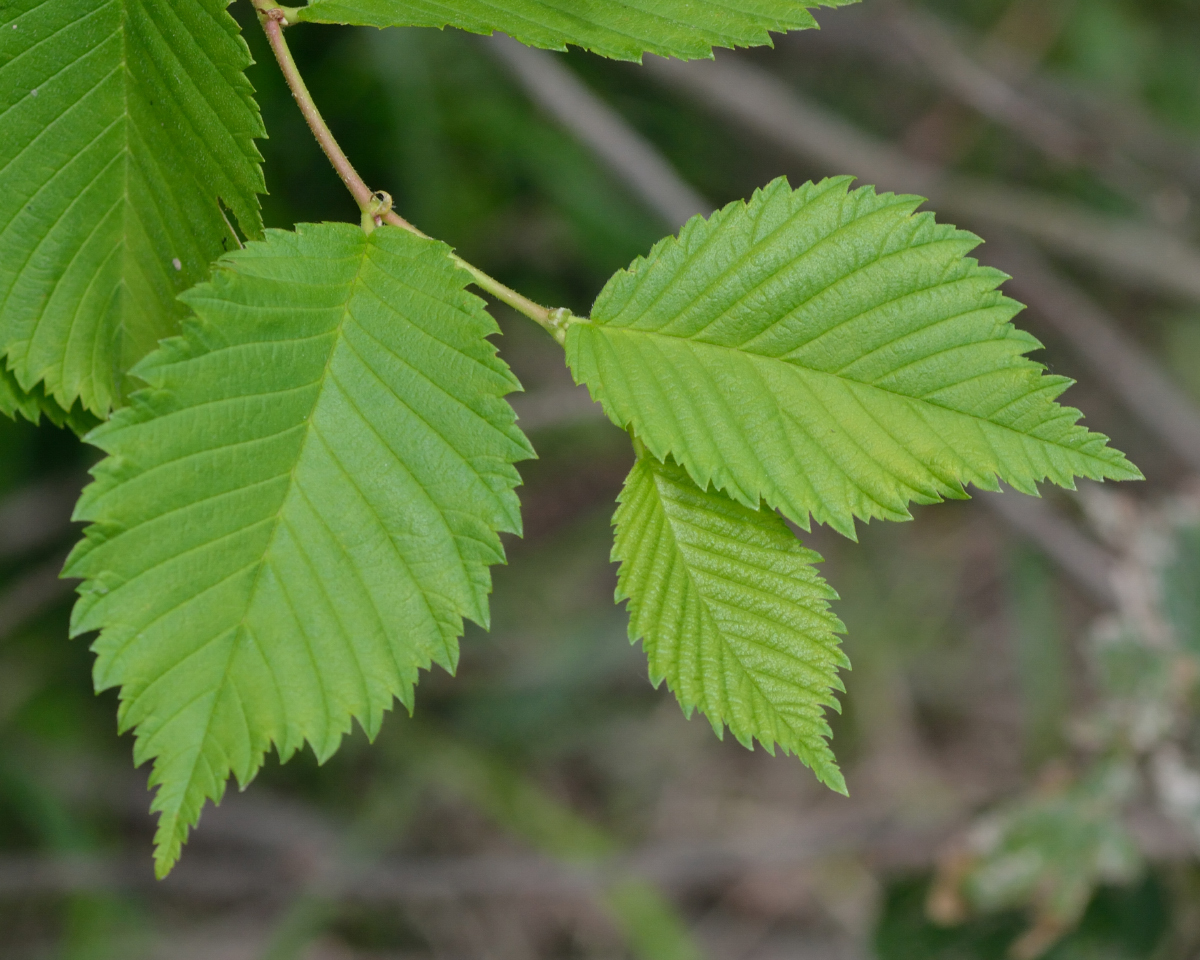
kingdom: Plantae
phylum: Tracheophyta
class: Magnoliopsida
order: Rosales
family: Ulmaceae
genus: Ulmus
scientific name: Ulmus laevis
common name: European white-elm
